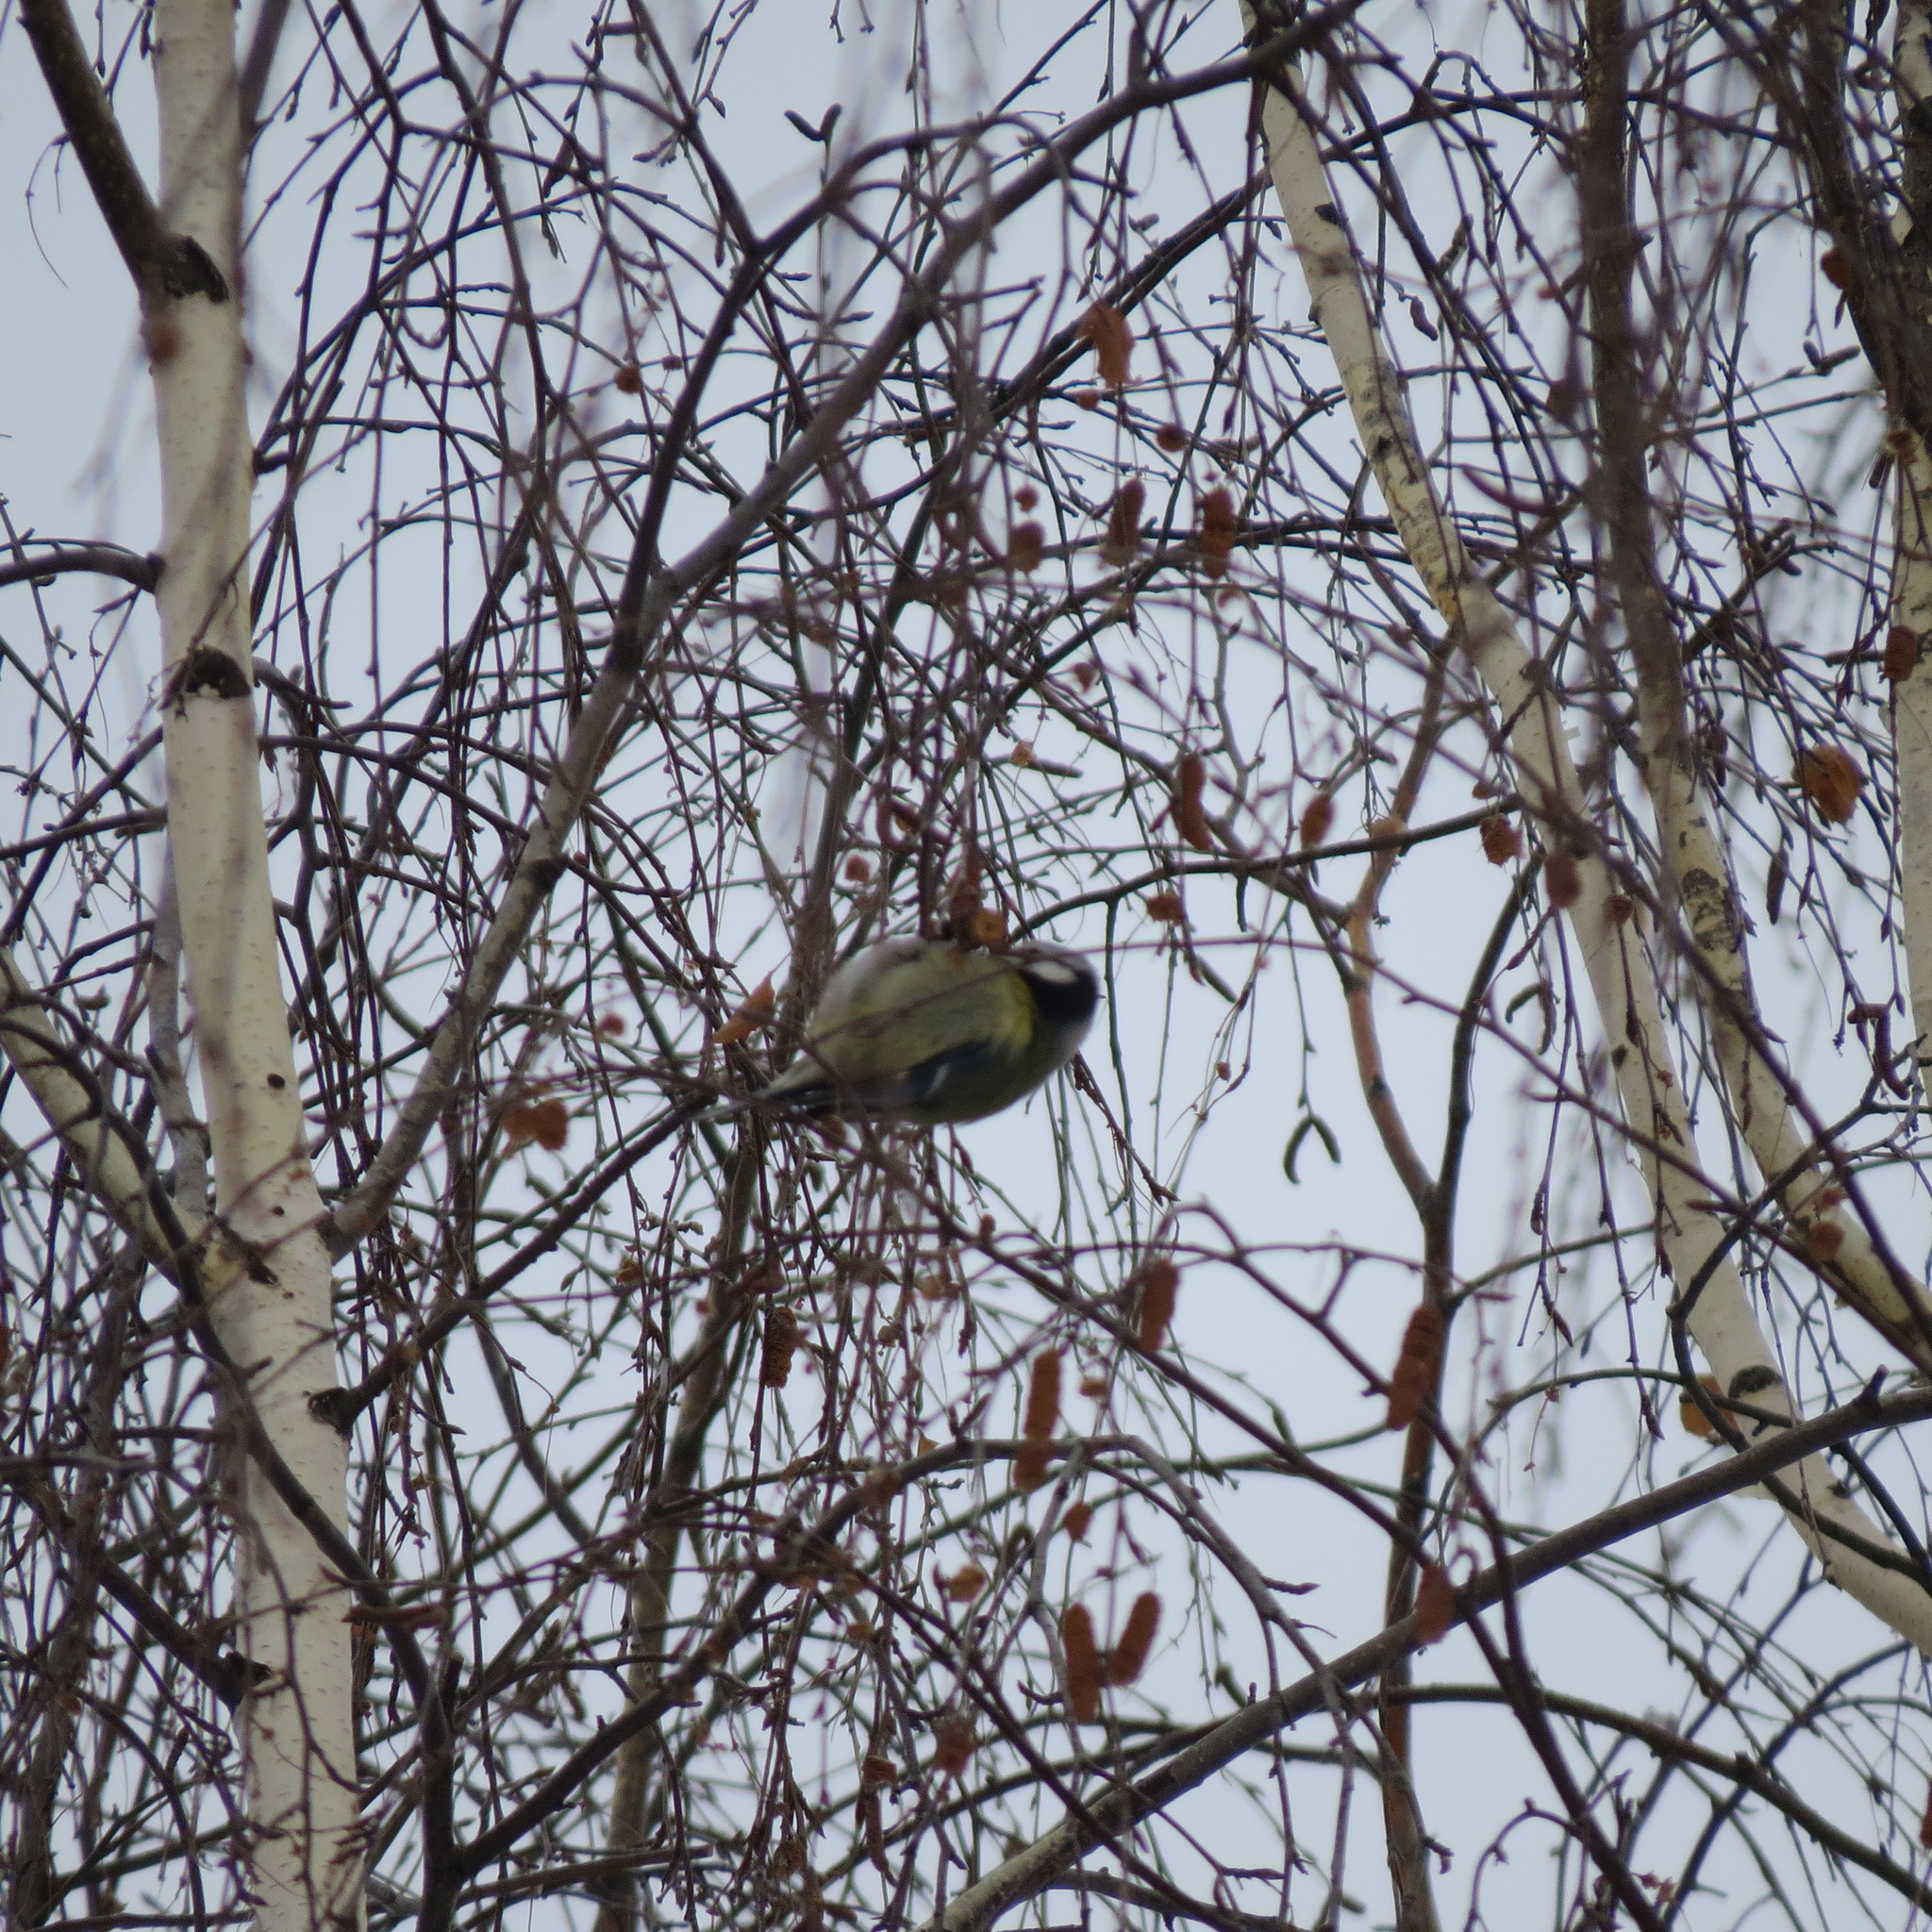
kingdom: Animalia
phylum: Chordata
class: Aves
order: Passeriformes
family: Paridae
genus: Cyanistes
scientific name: Cyanistes caeruleus
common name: Eurasian blue tit
